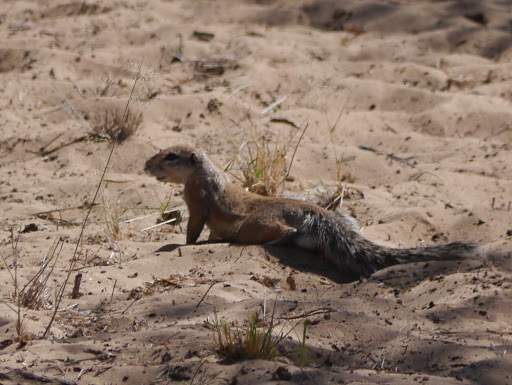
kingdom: Animalia
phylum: Chordata
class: Mammalia
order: Rodentia
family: Sciuridae
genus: Xerus
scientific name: Xerus inauris
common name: South african ground squirrel
